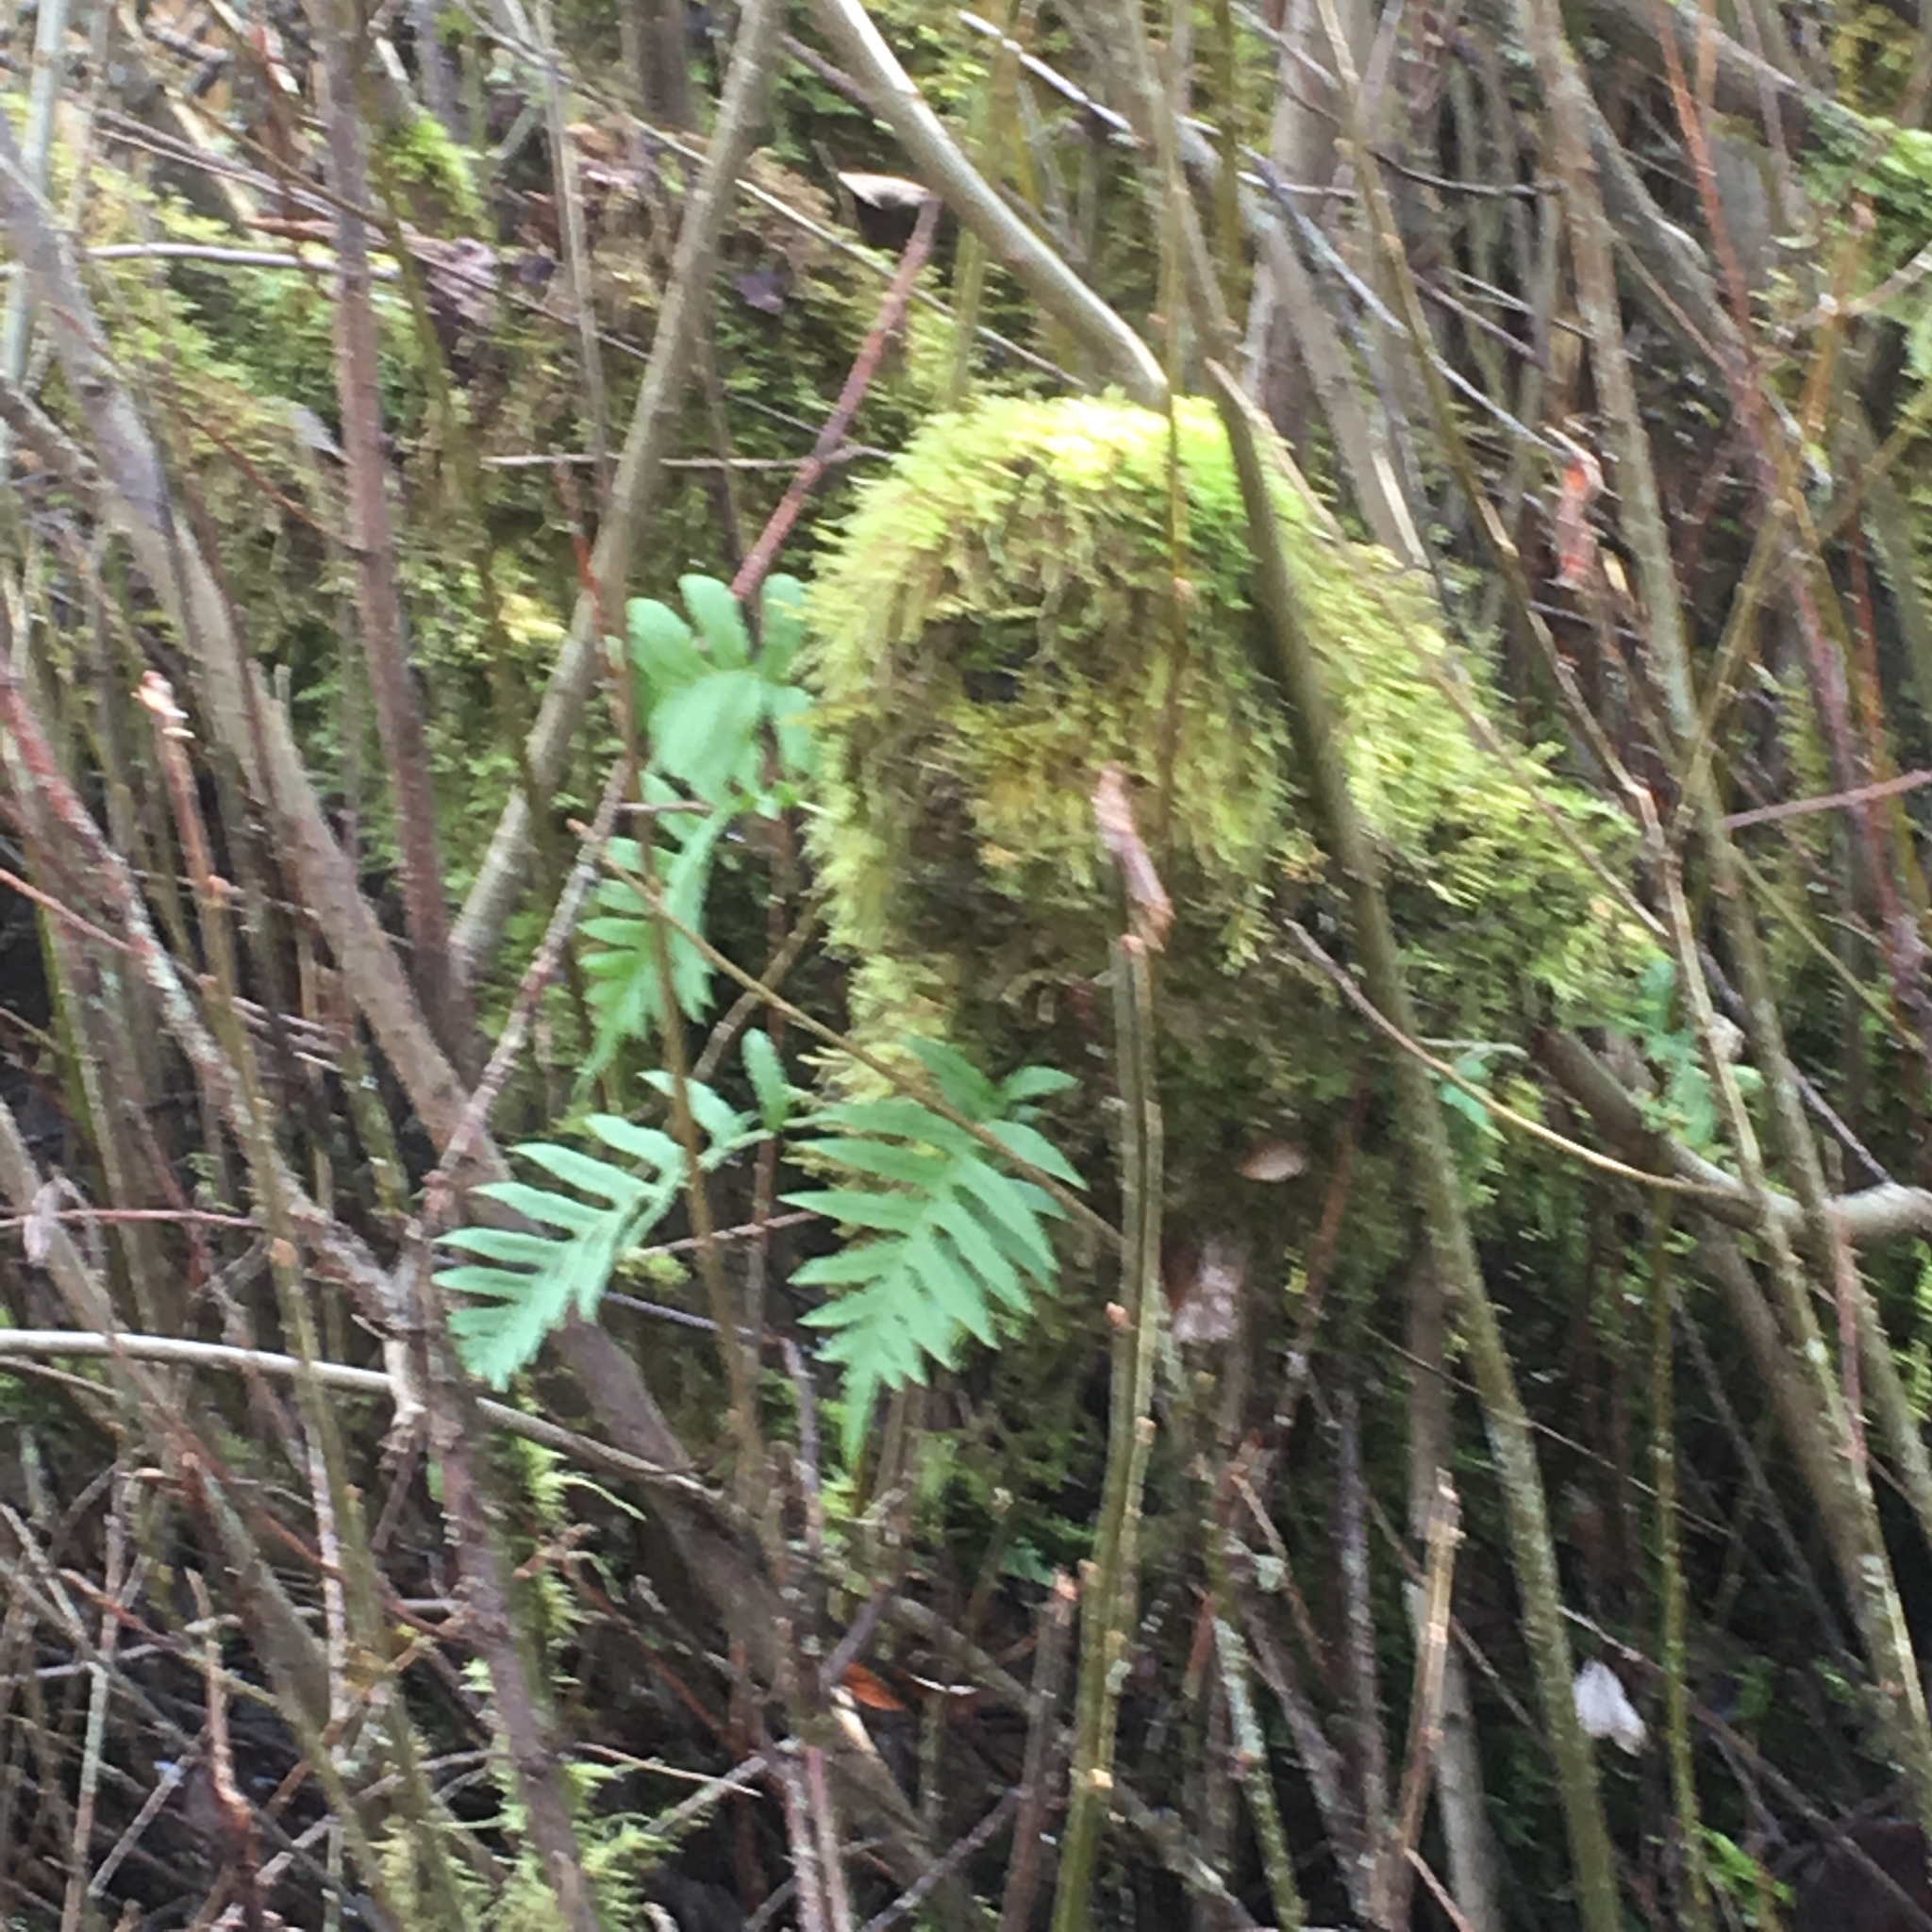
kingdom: Plantae
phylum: Tracheophyta
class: Polypodiopsida
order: Polypodiales
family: Polypodiaceae
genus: Polypodium
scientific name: Polypodium glycyrrhiza
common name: Licorice fern
